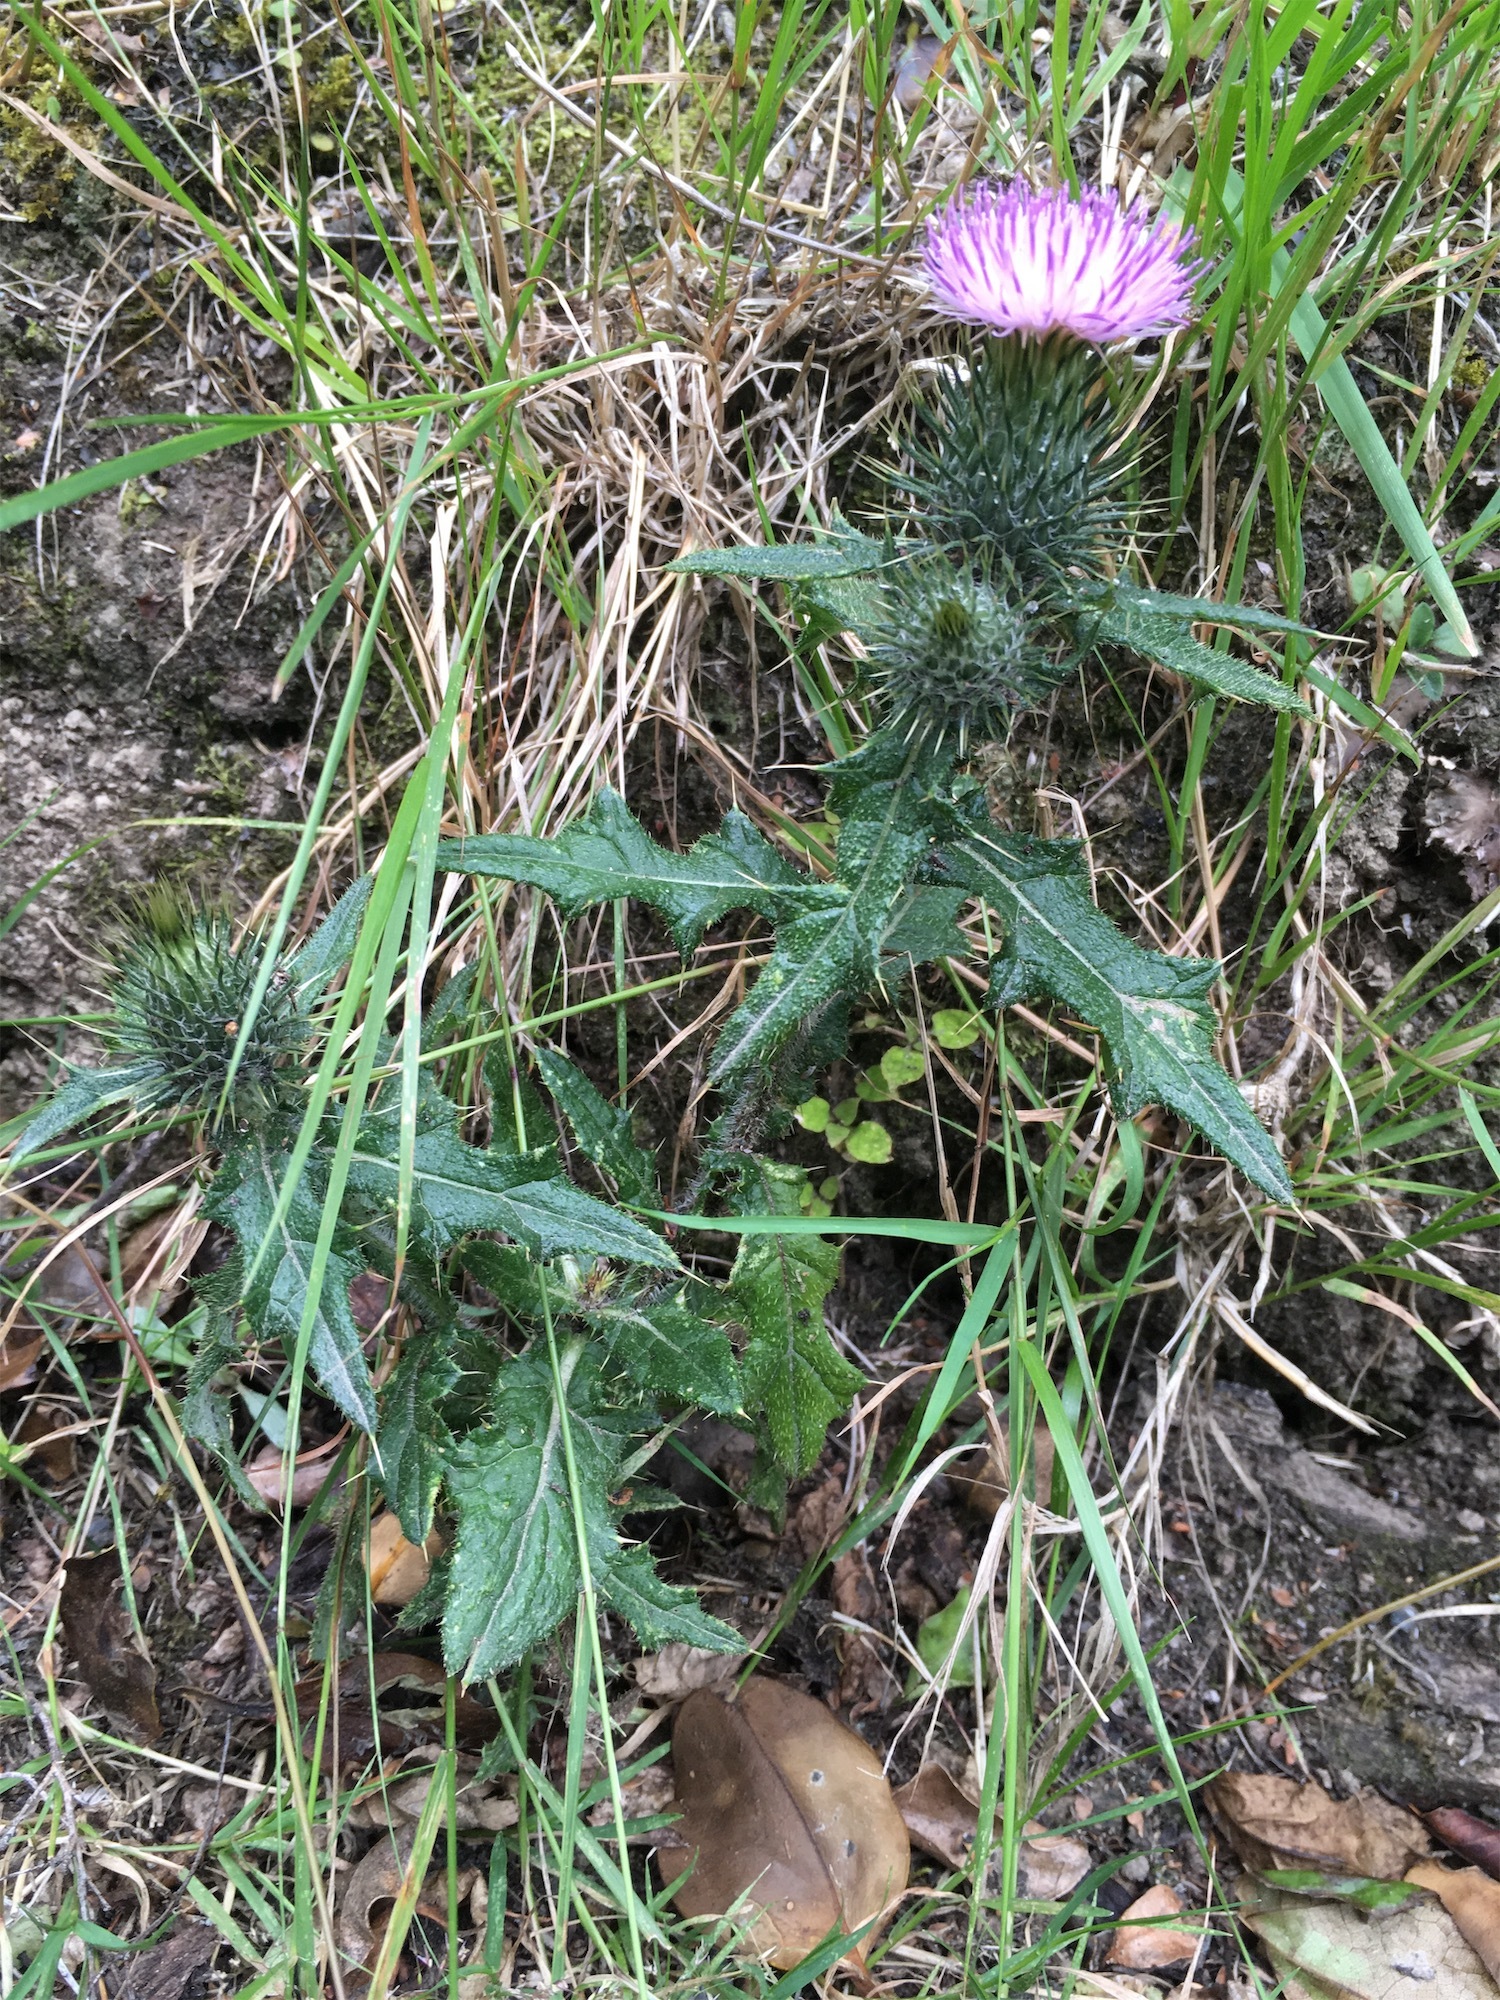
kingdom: Plantae
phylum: Tracheophyta
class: Magnoliopsida
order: Asterales
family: Asteraceae
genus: Cirsium
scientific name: Cirsium vulgare
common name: Bull thistle
